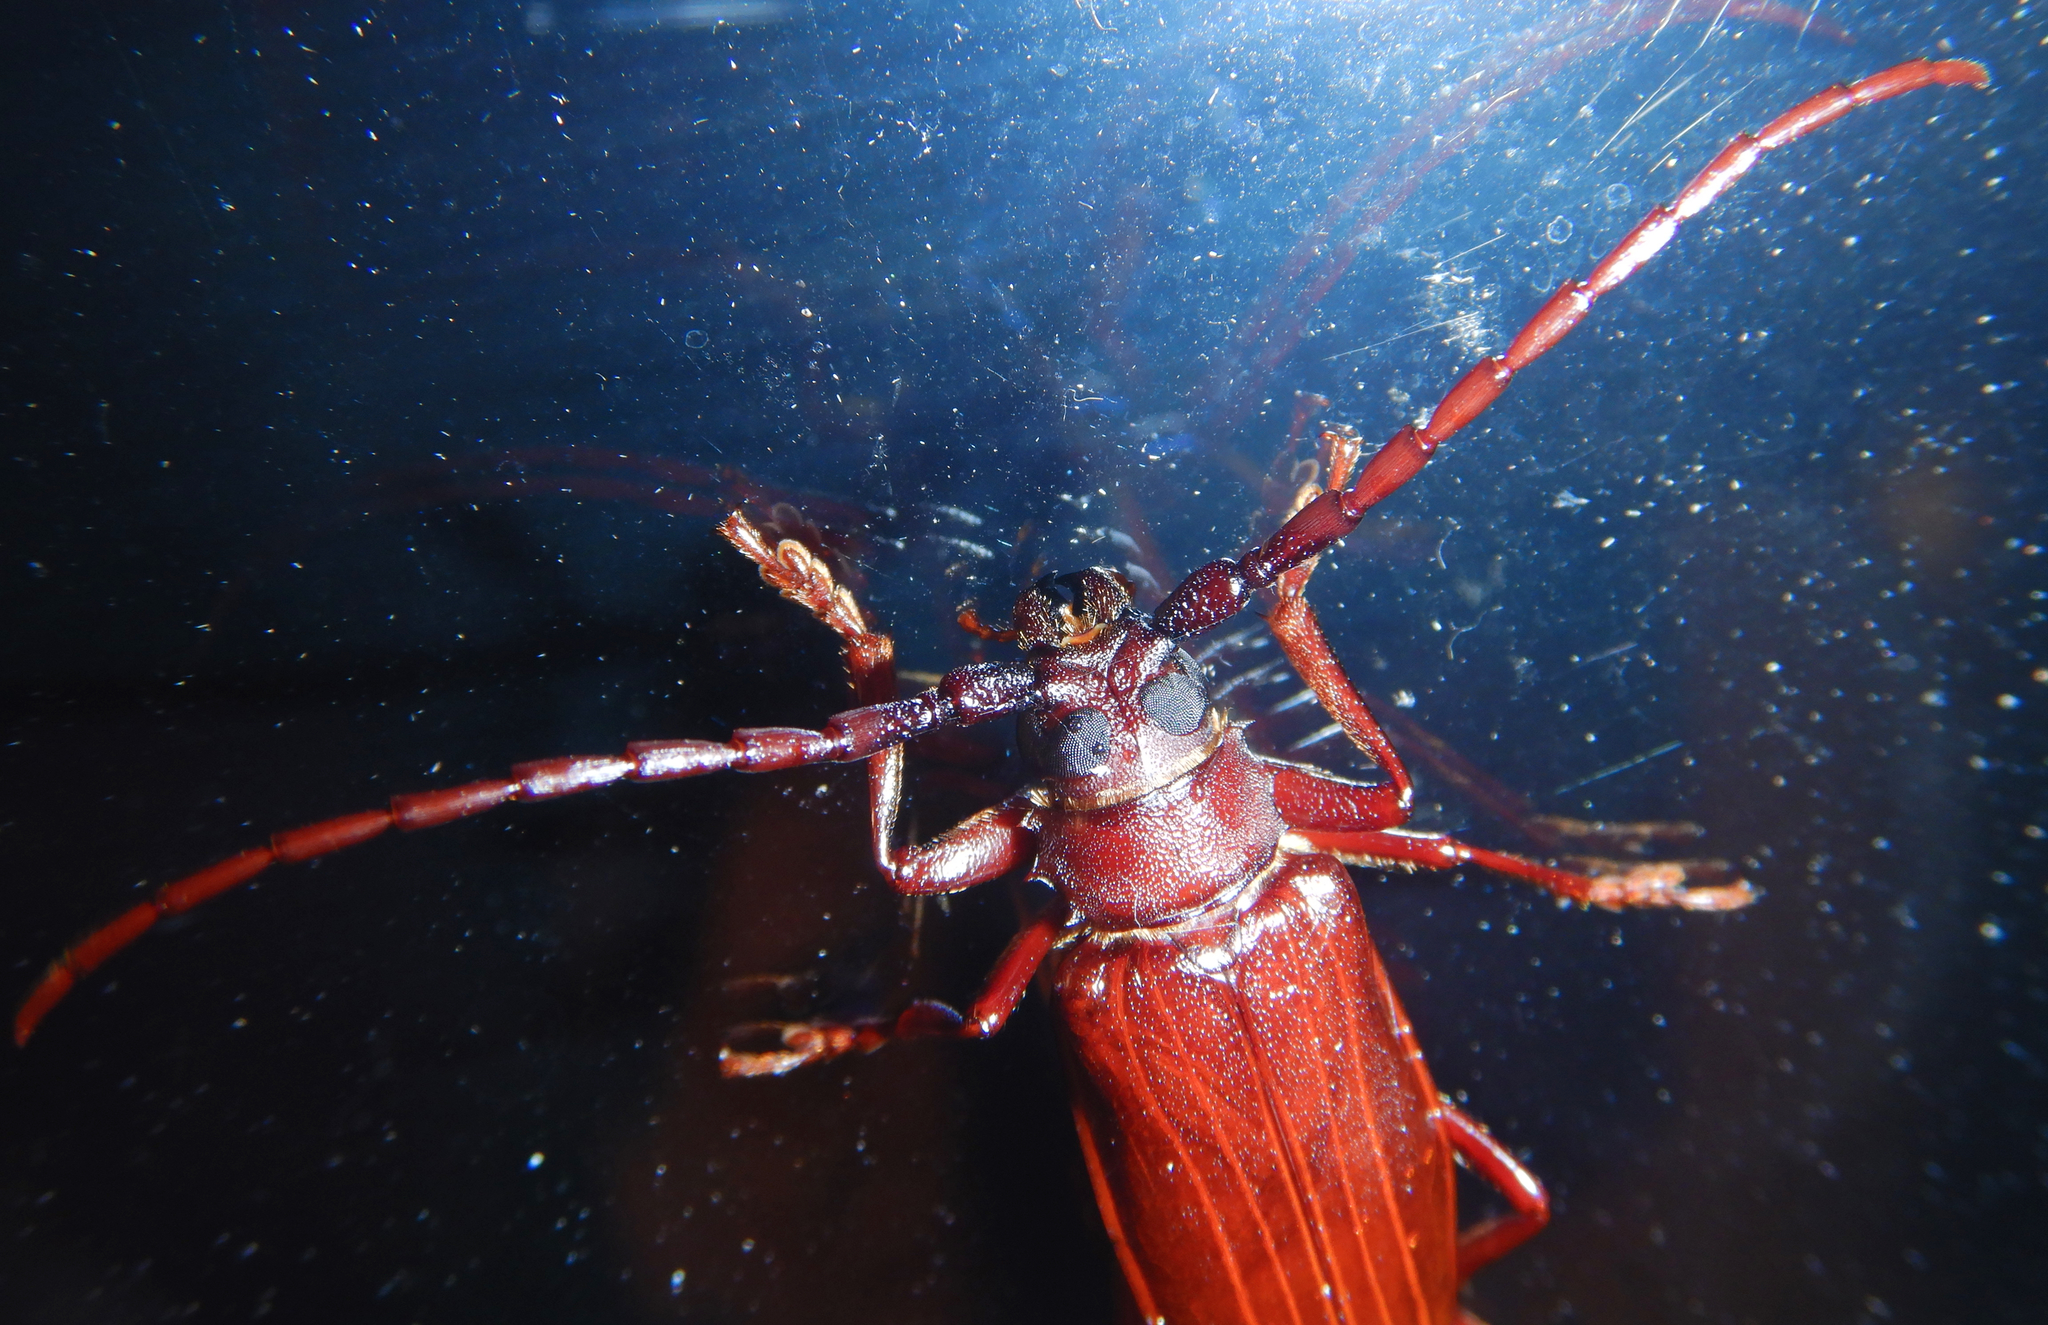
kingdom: Animalia
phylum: Arthropoda
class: Insecta
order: Coleoptera
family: Cerambycidae
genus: Orthosoma
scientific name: Orthosoma brunneum
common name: Brown prionid beetle
